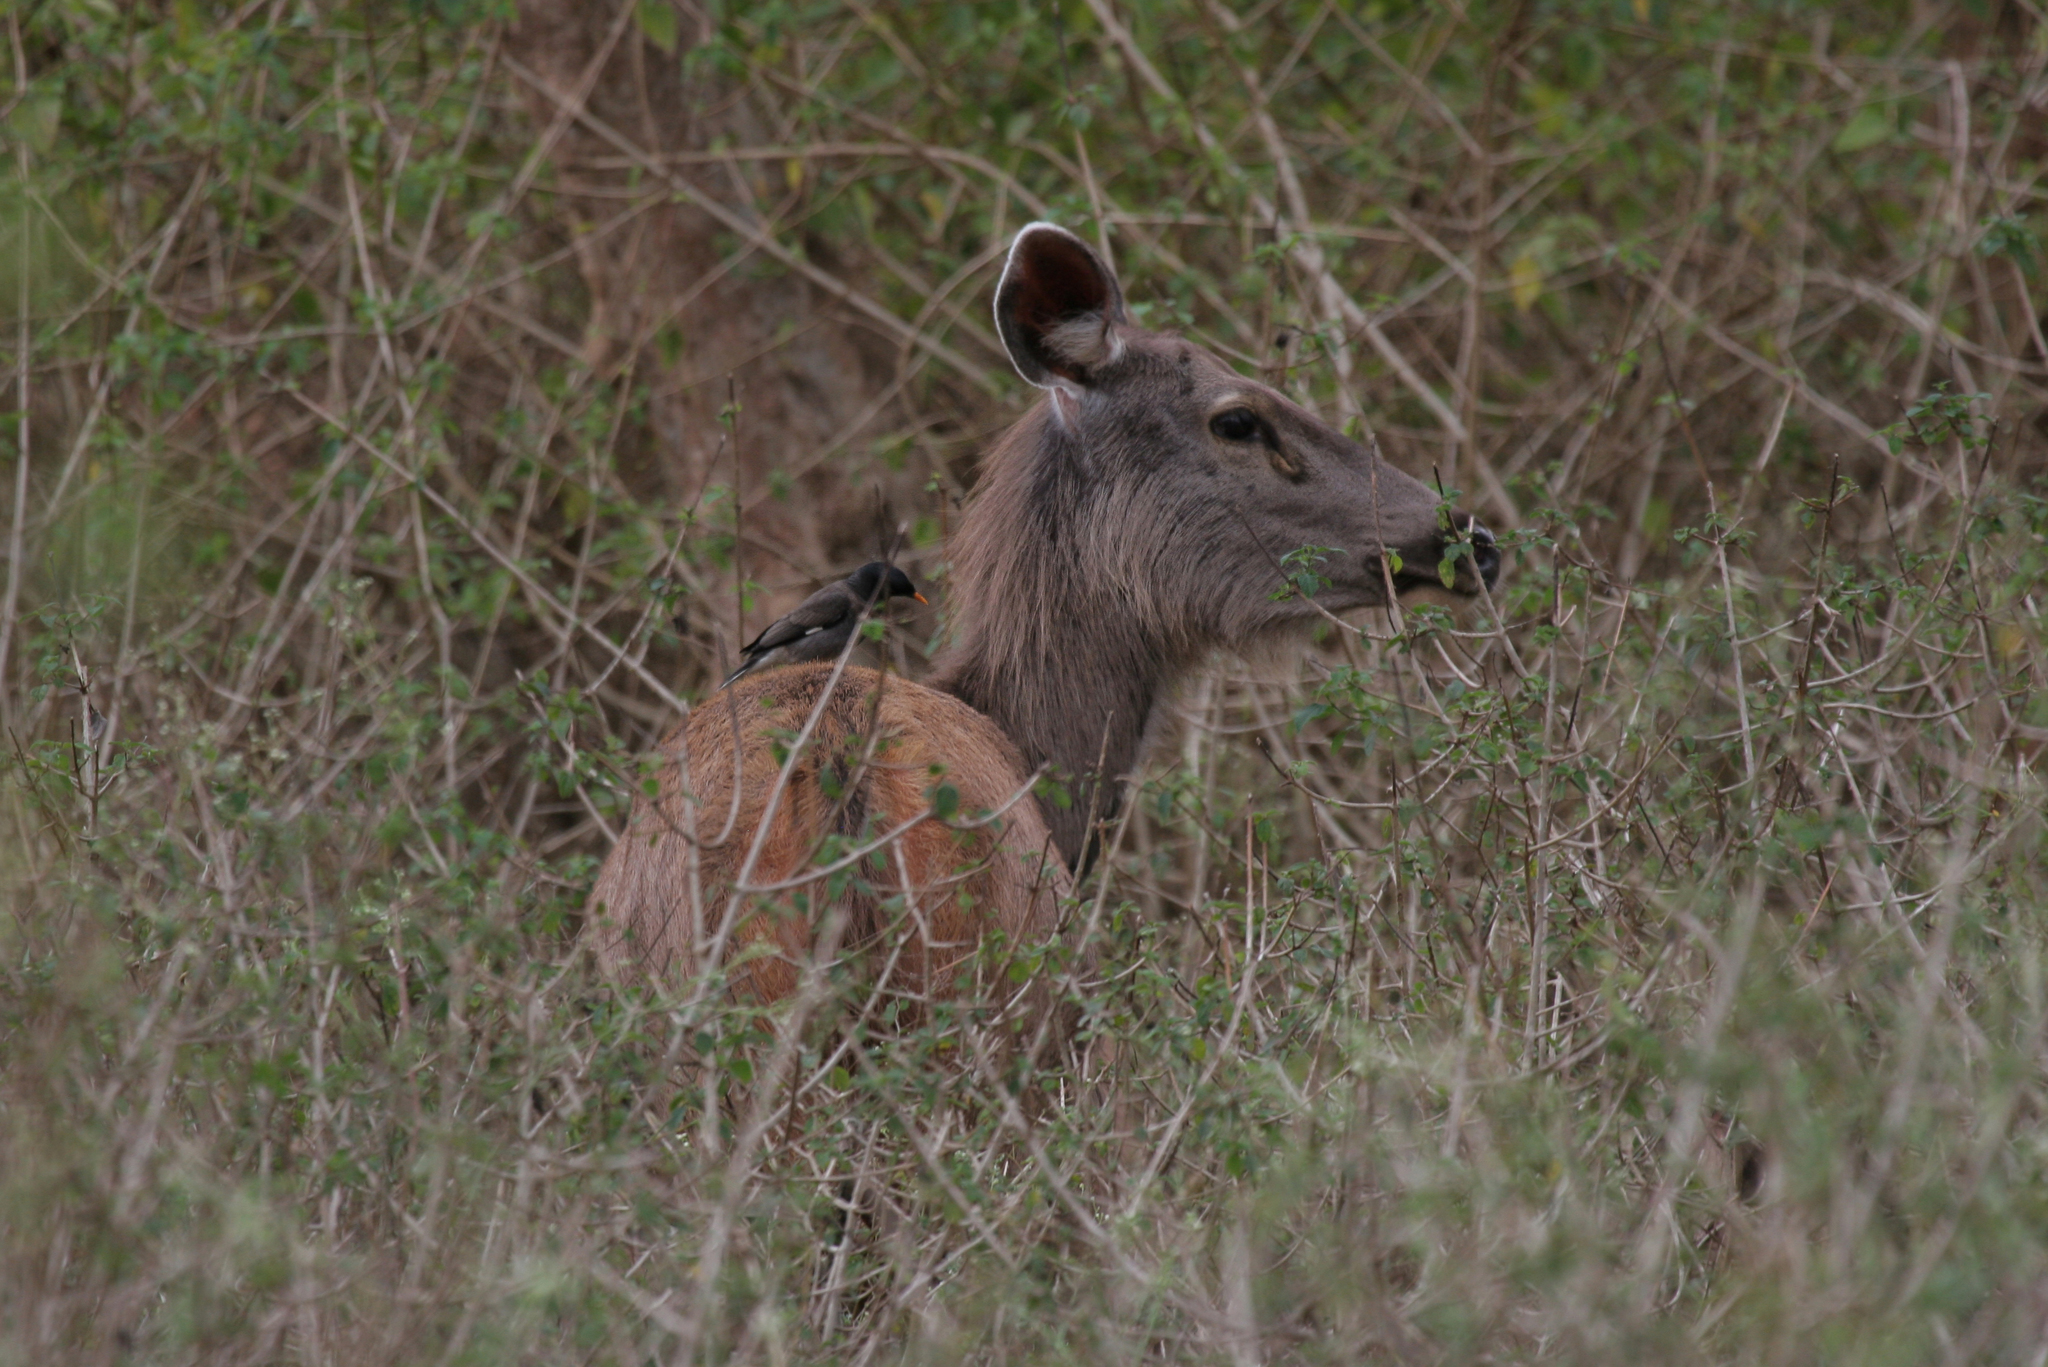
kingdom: Animalia
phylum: Chordata
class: Mammalia
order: Artiodactyla
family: Cervidae
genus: Rusa
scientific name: Rusa unicolor
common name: Sambar
